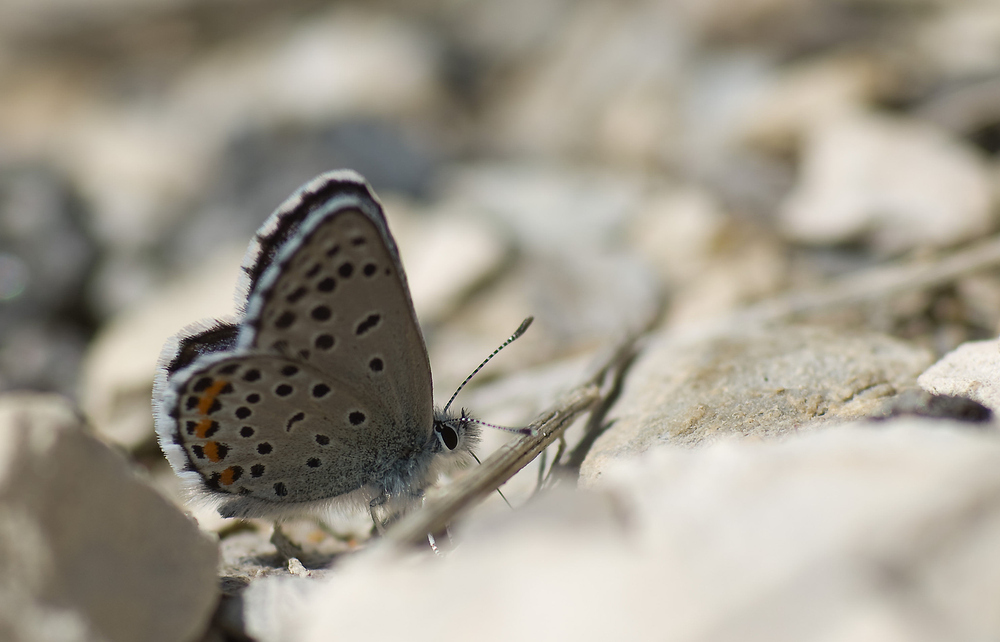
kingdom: Animalia
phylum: Arthropoda
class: Insecta
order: Lepidoptera
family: Lycaenidae
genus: Pseudophilotes
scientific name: Pseudophilotes baton
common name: Baton blue
